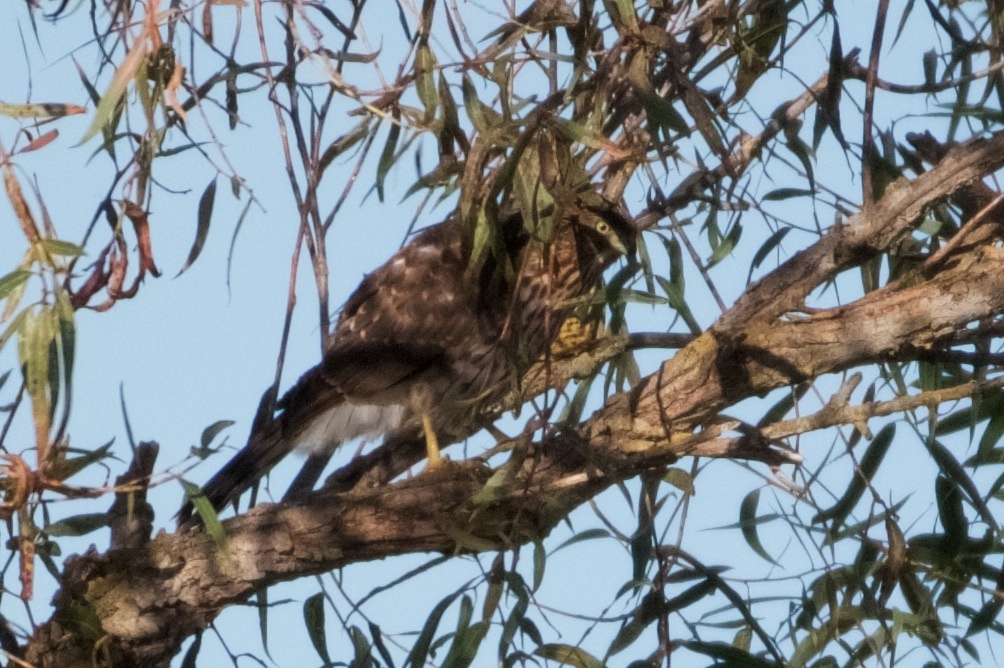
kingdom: Animalia
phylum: Chordata
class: Aves
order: Accipitriformes
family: Accipitridae
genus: Accipiter
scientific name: Accipiter cooperii
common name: Cooper's hawk
